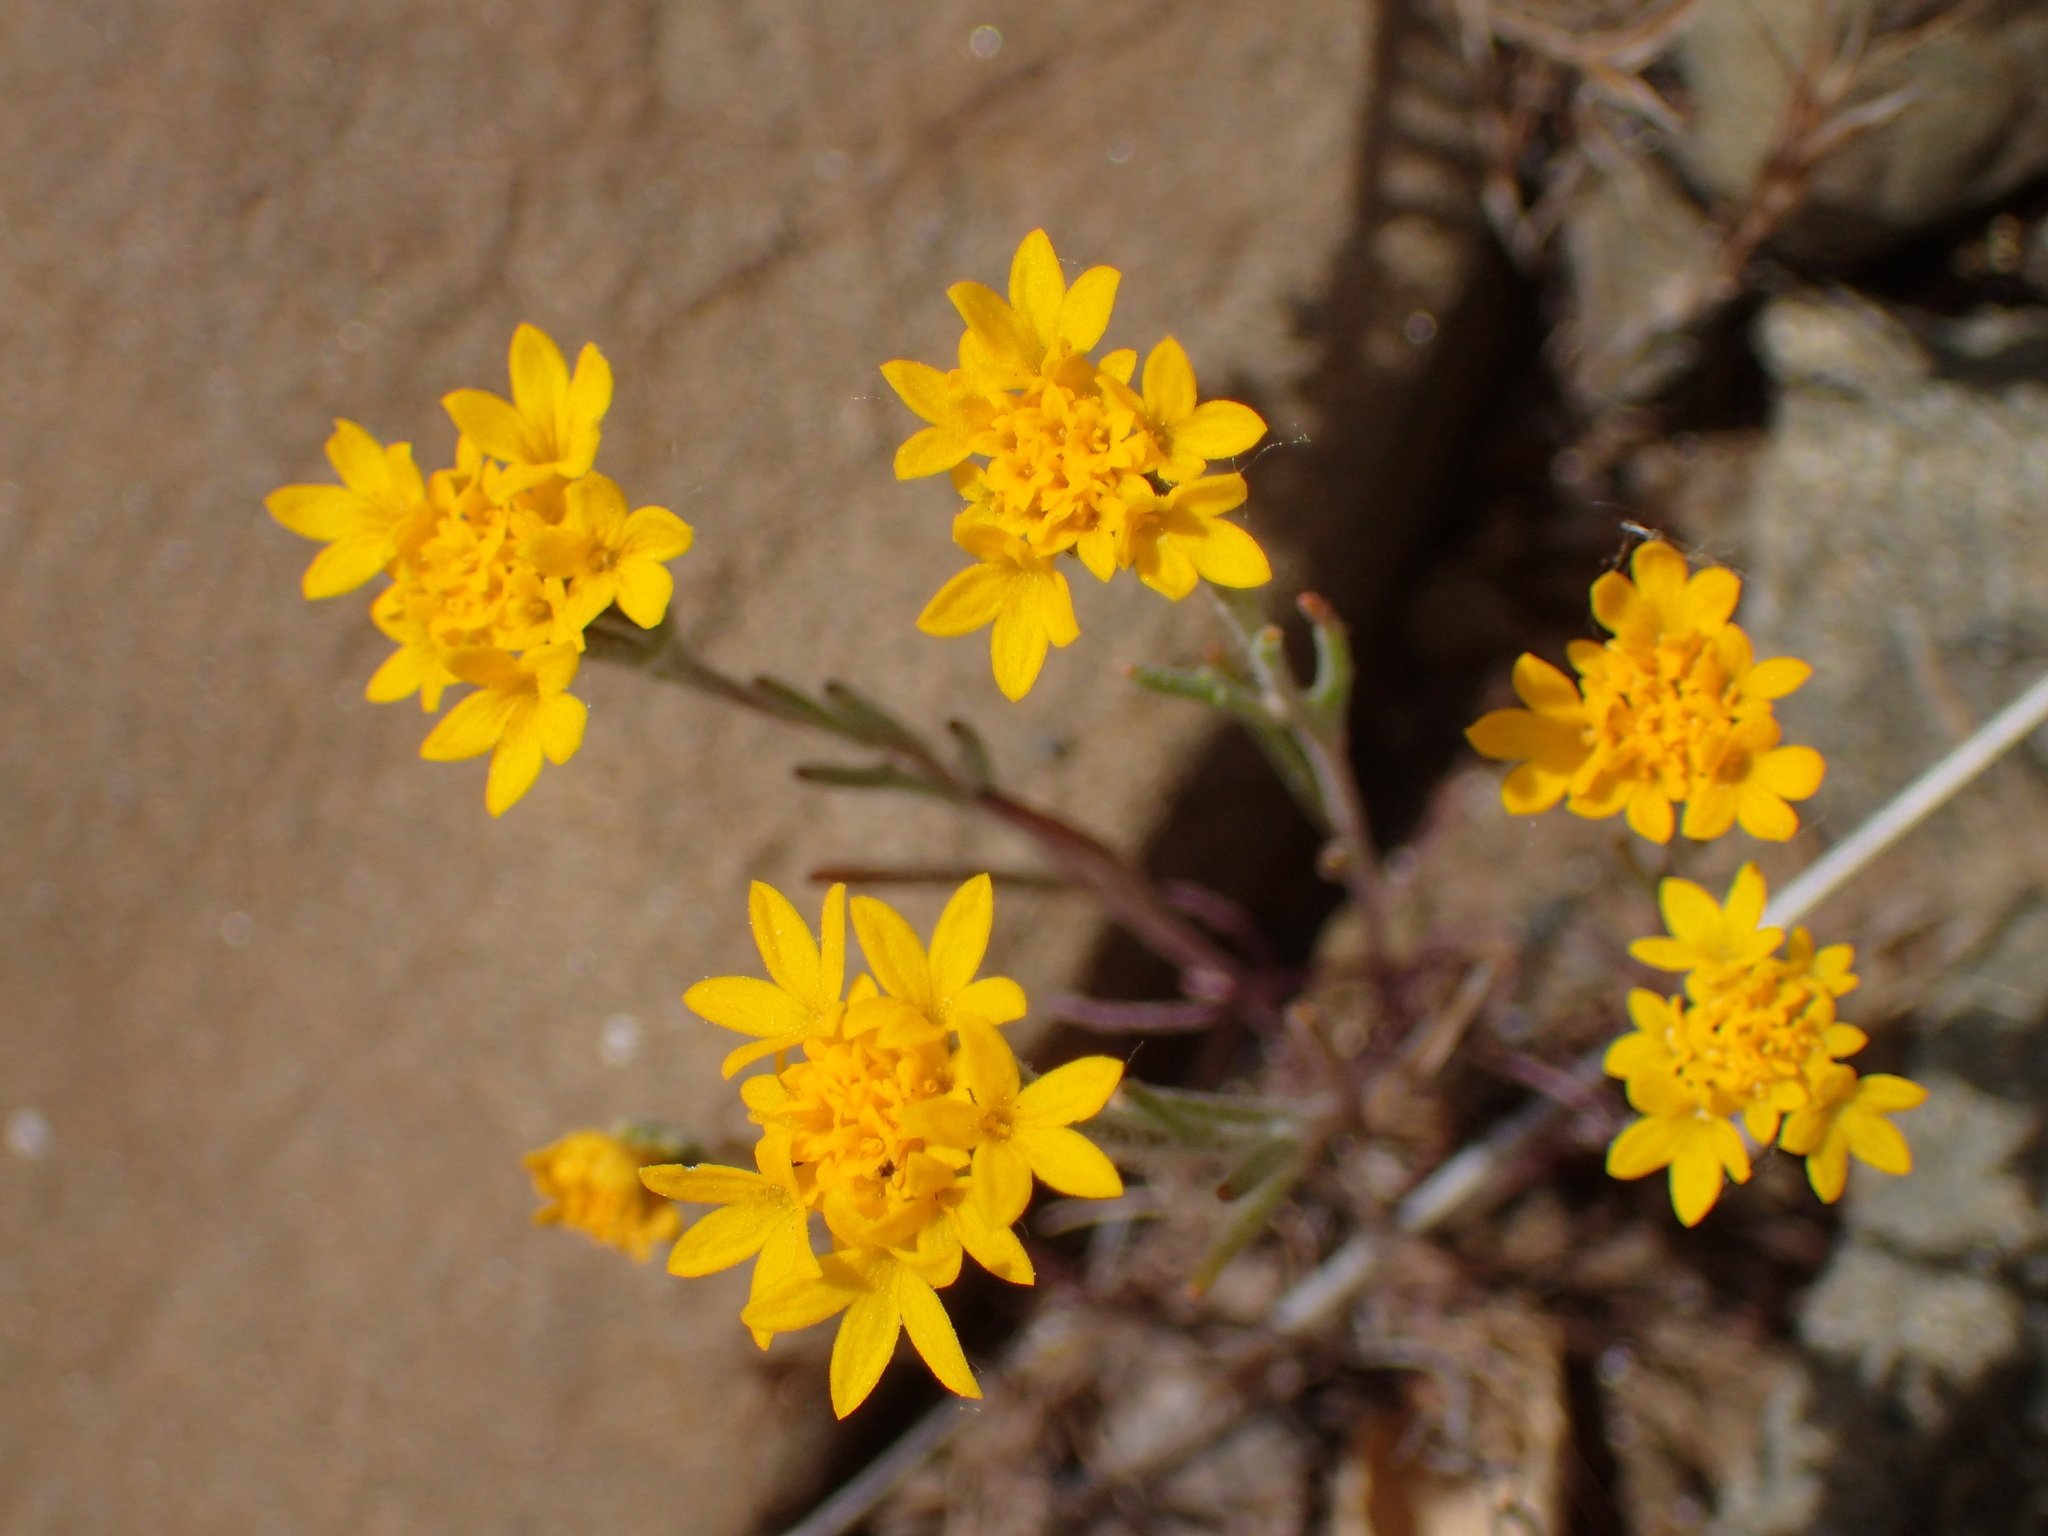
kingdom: Plantae
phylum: Tracheophyta
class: Magnoliopsida
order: Asterales
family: Asteraceae
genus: Chaenactis
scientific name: Chaenactis glabriuscula
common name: Yellow pincushion
